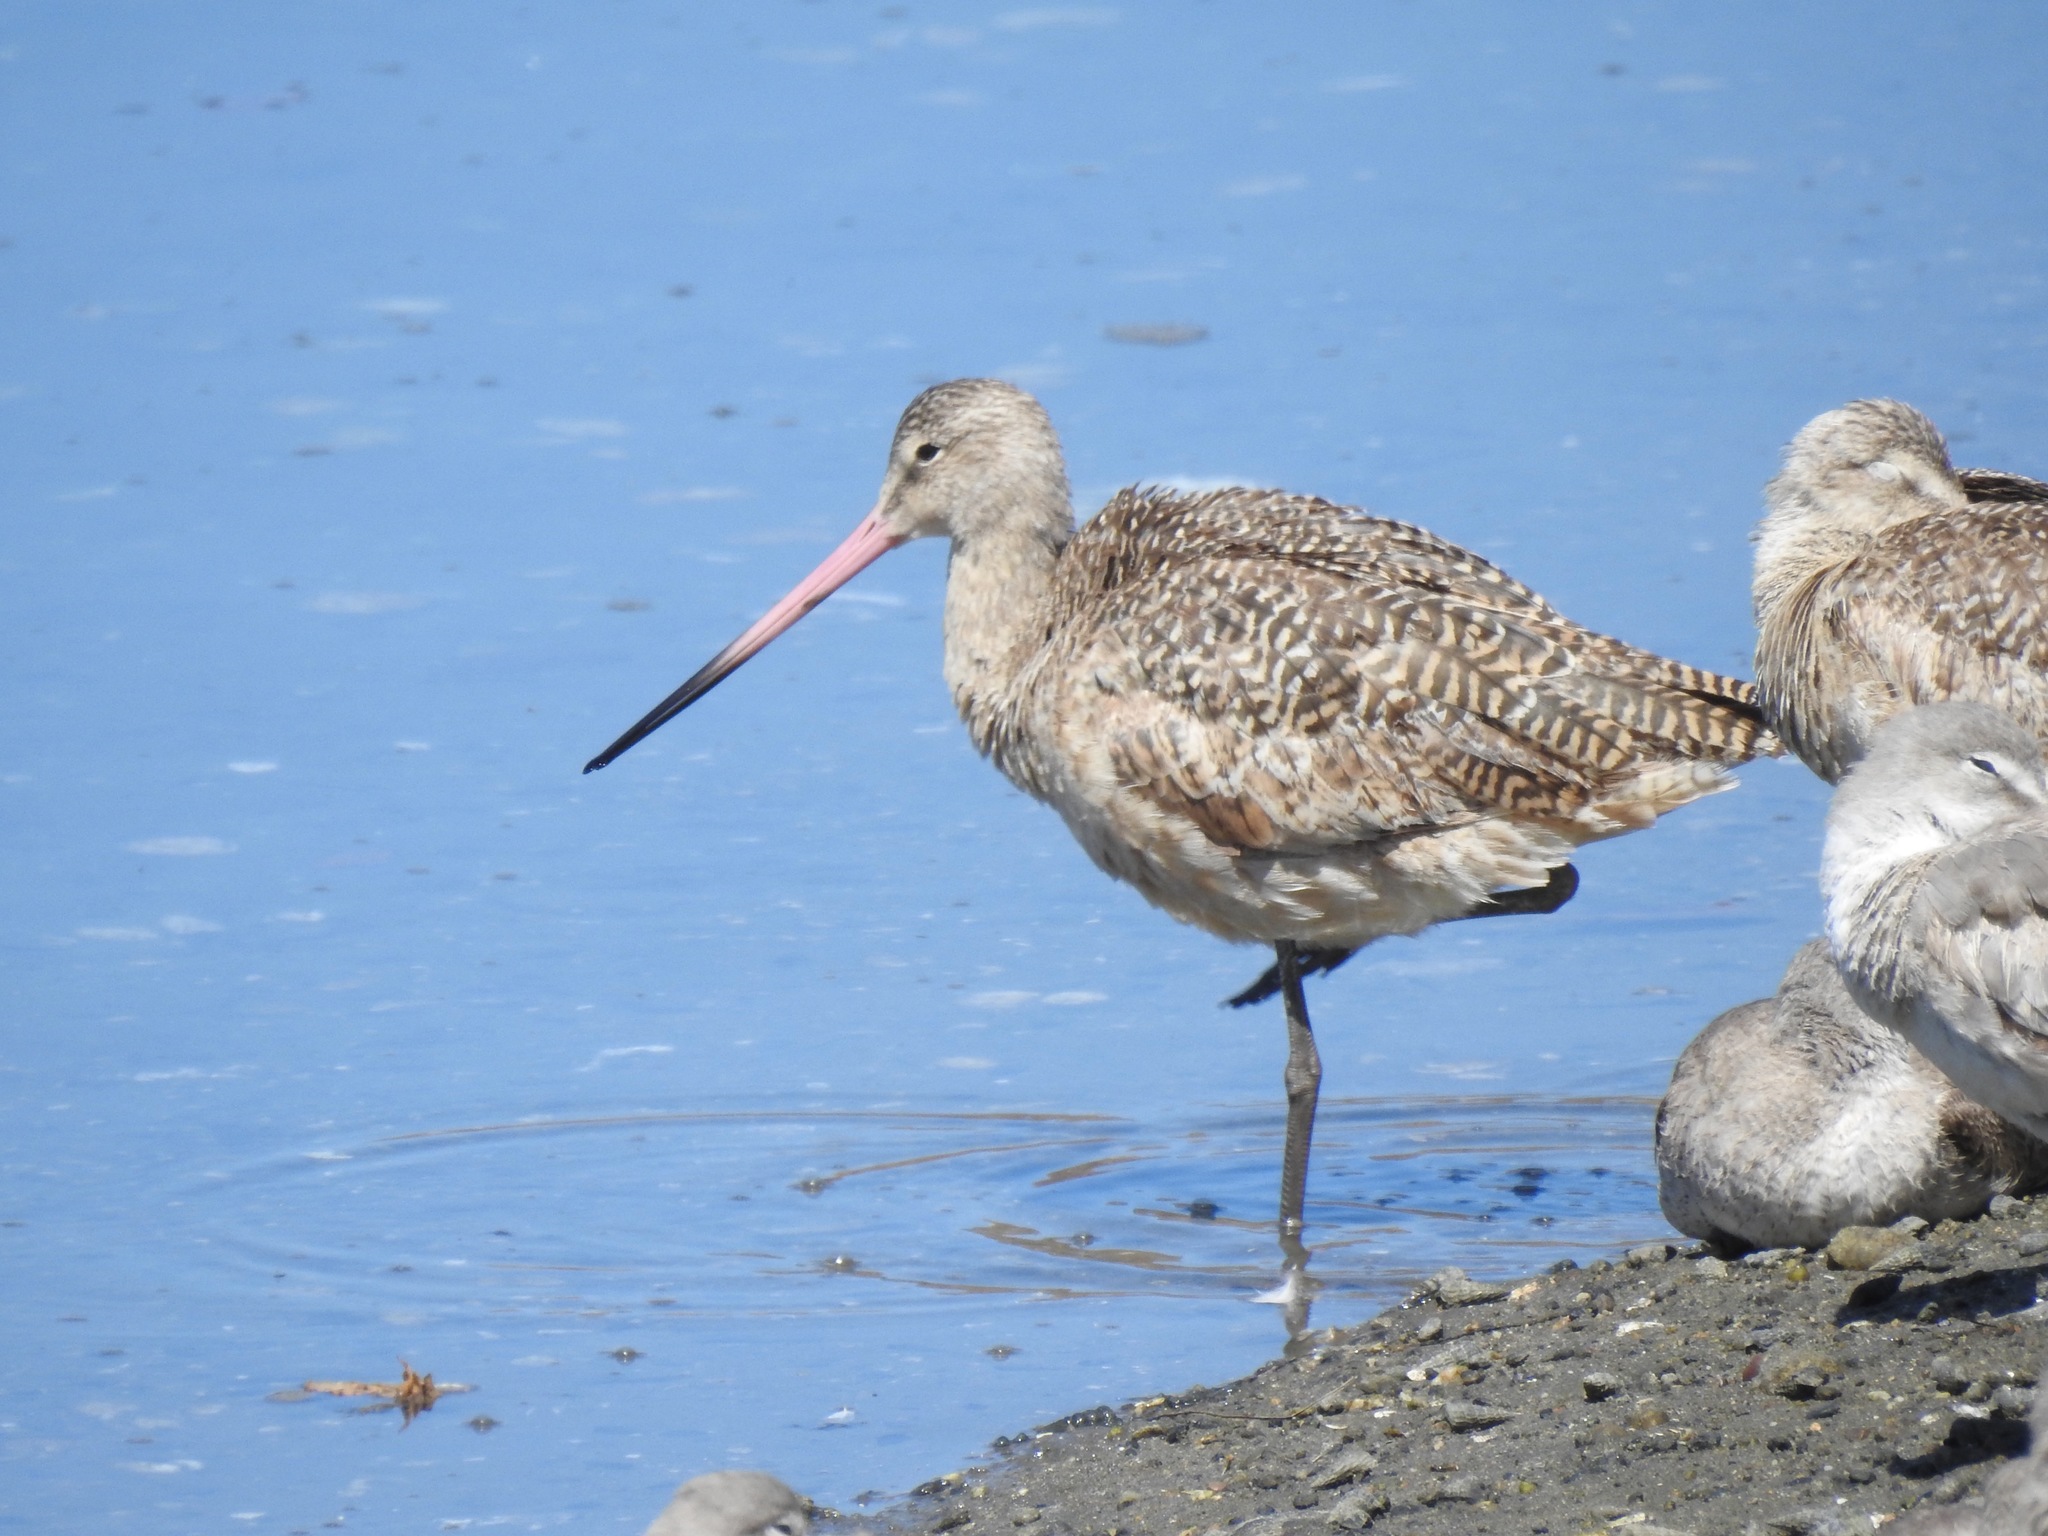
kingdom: Animalia
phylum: Chordata
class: Aves
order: Charadriiformes
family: Scolopacidae
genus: Limosa
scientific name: Limosa fedoa
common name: Marbled godwit
